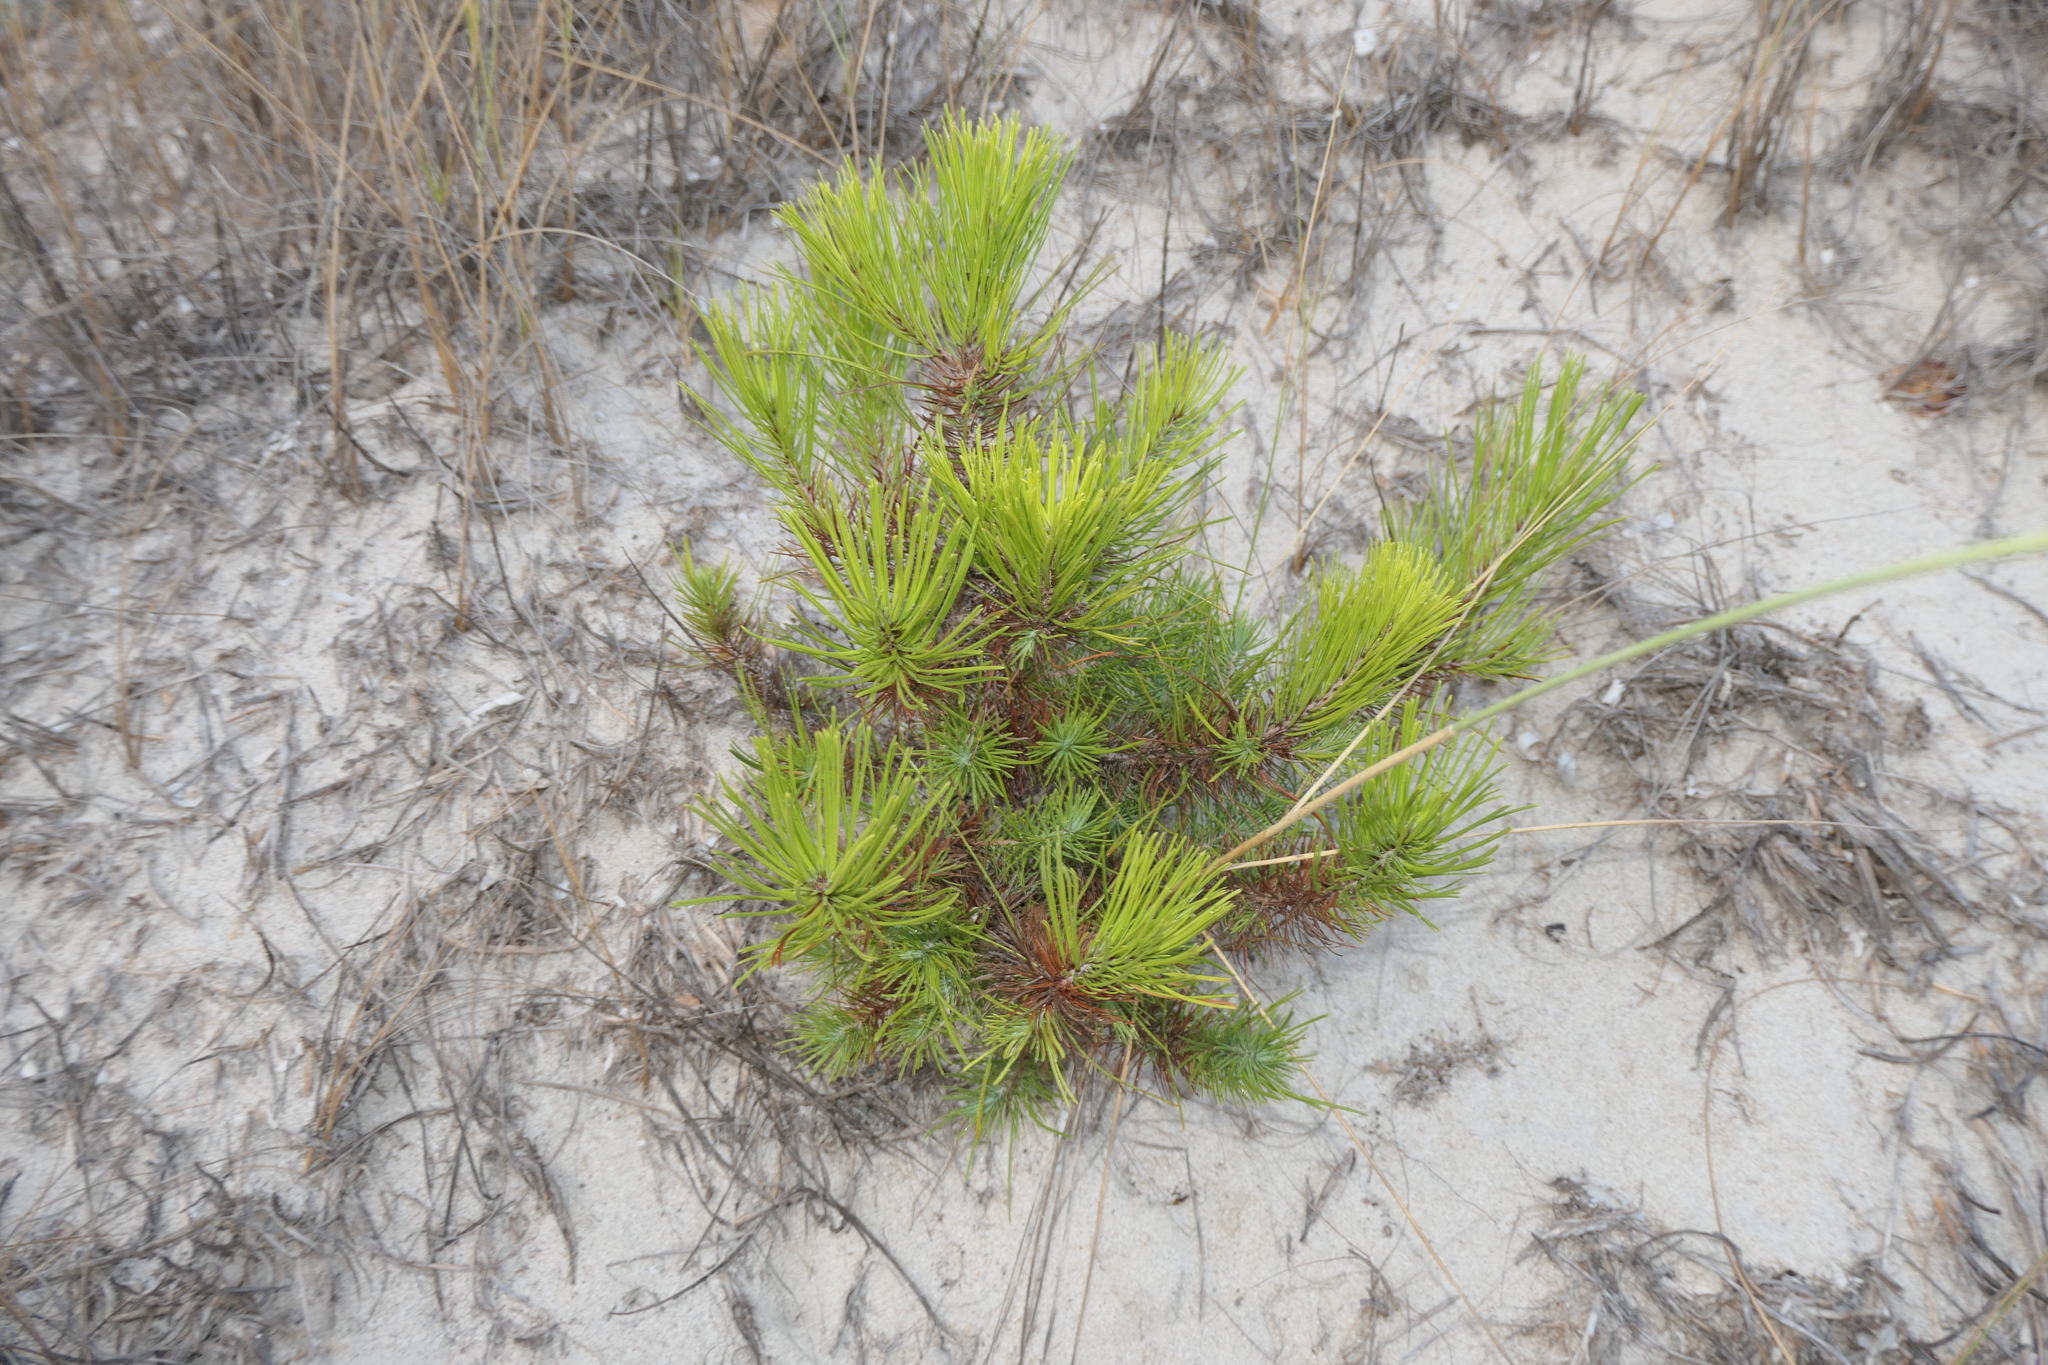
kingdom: Plantae
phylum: Tracheophyta
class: Pinopsida
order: Pinales
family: Pinaceae
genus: Pinus
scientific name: Pinus halepensis
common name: Aleppo pine
